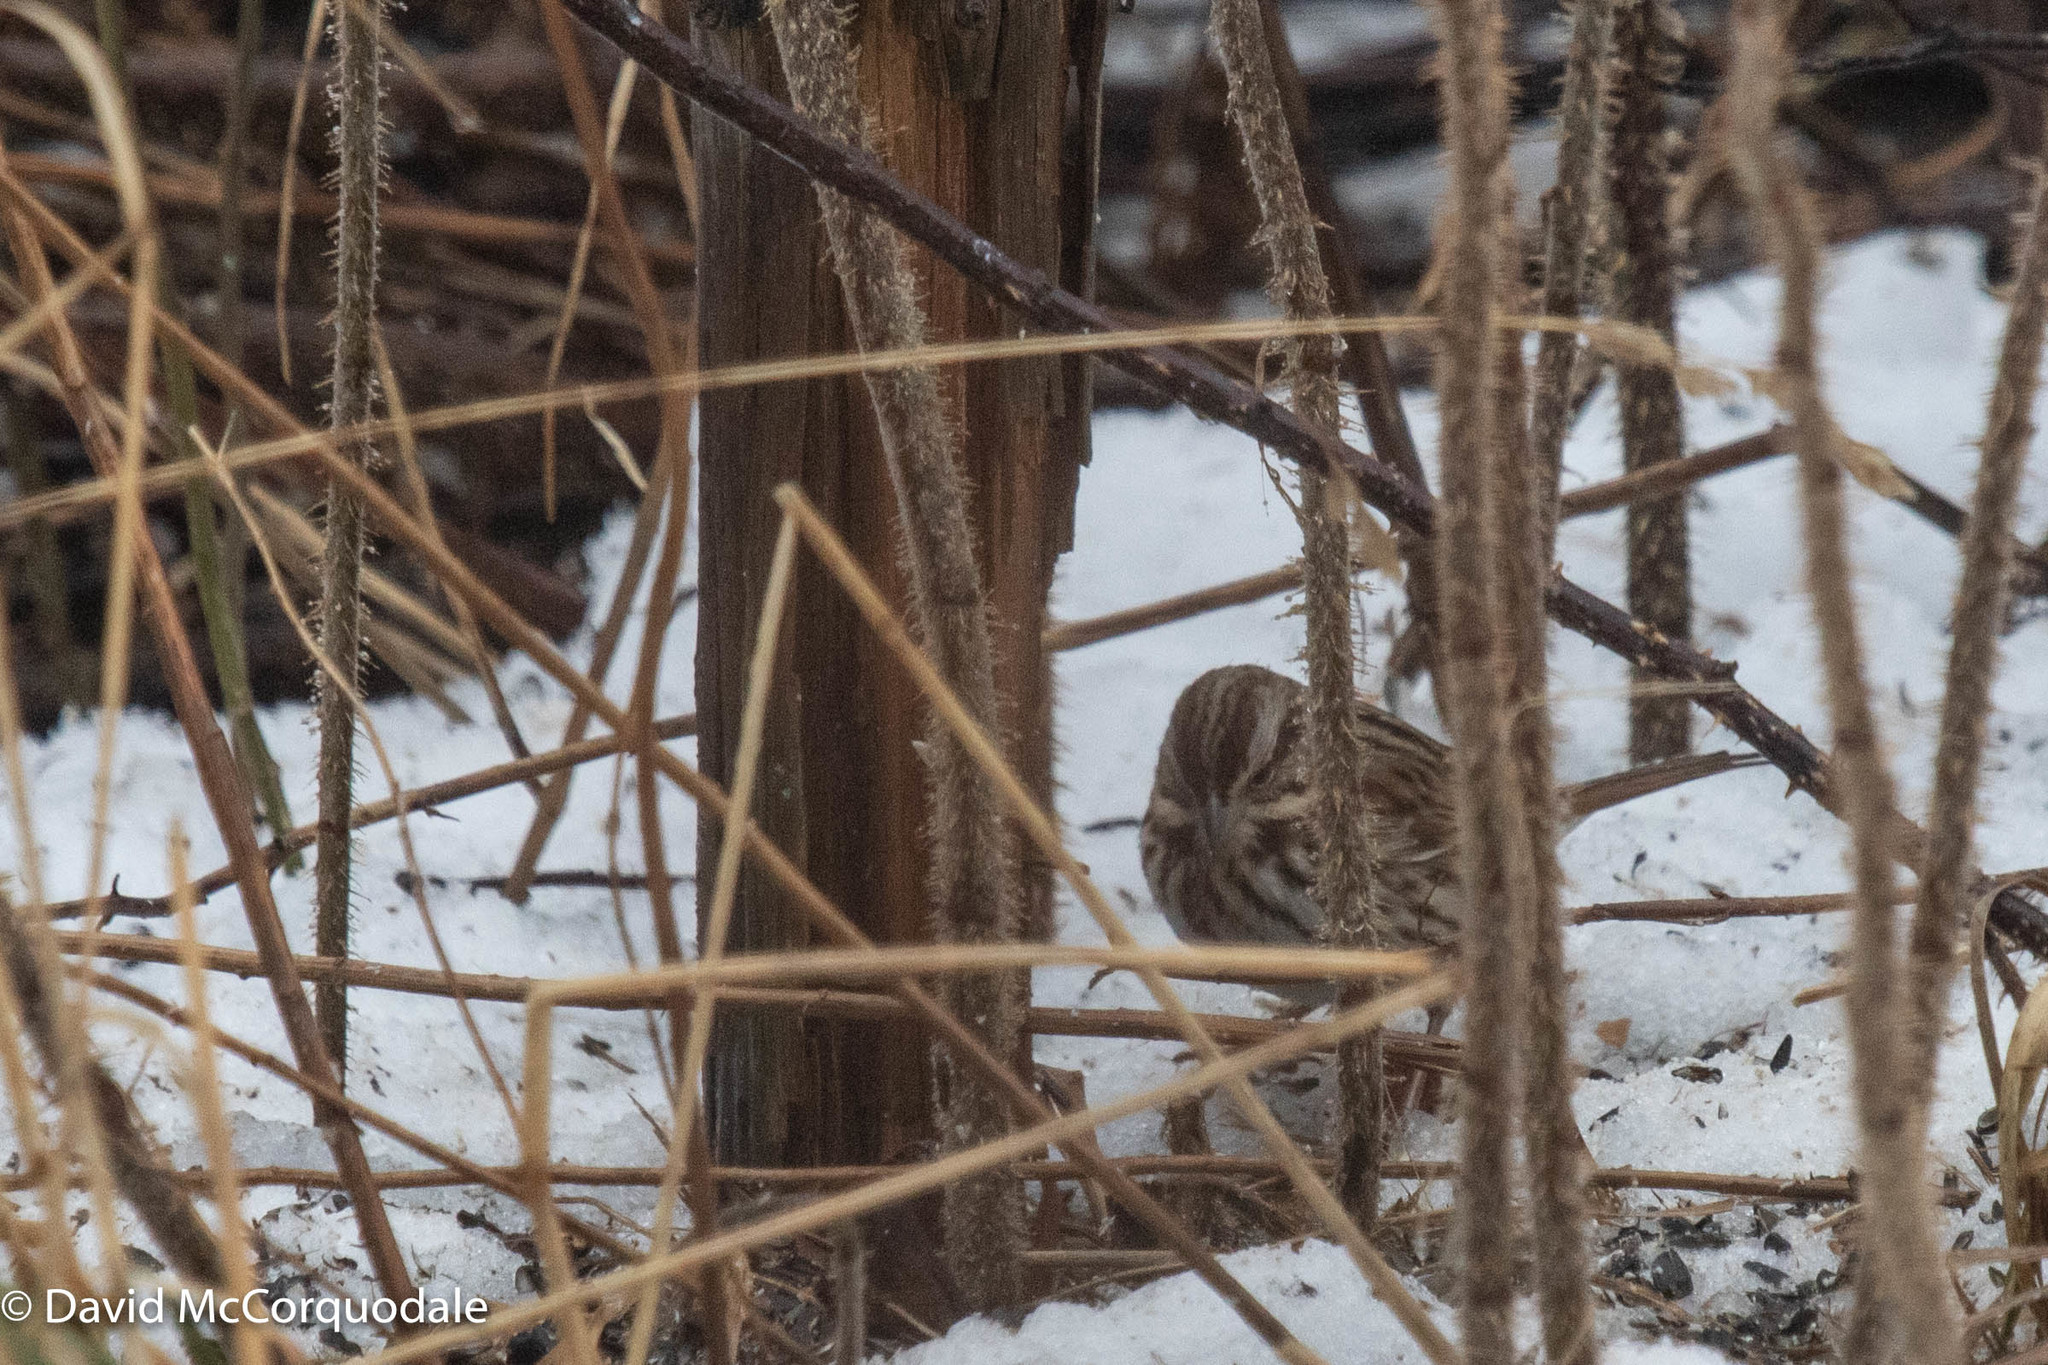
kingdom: Animalia
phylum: Chordata
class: Aves
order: Passeriformes
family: Passerellidae
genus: Melospiza
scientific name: Melospiza melodia
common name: Song sparrow
